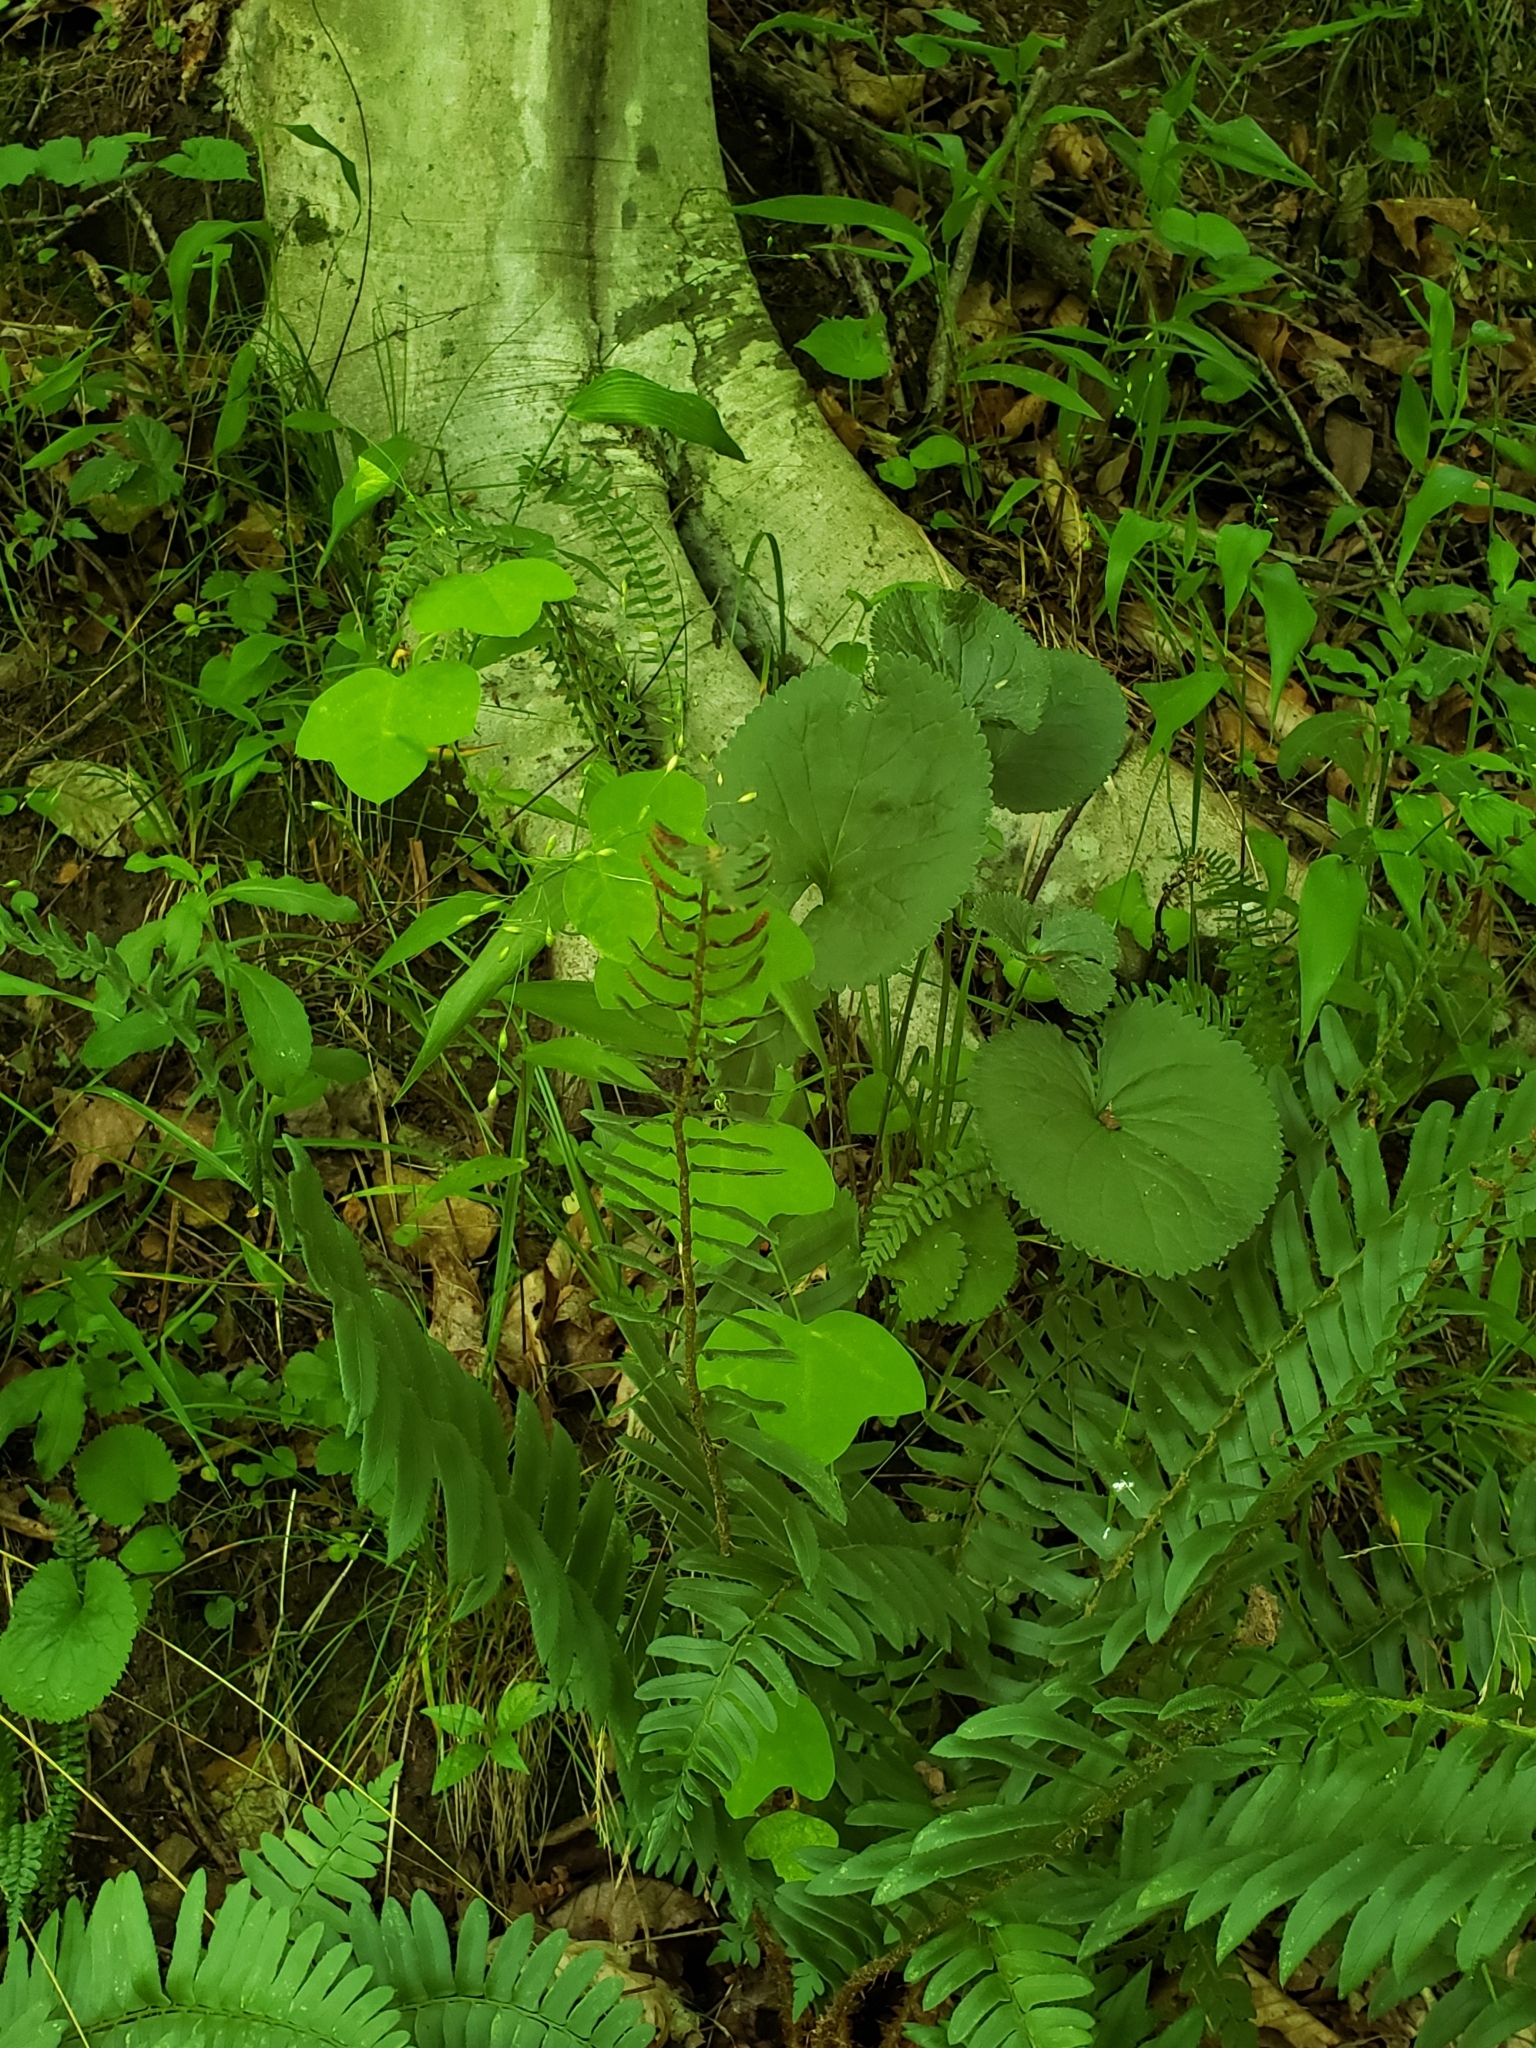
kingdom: Plantae
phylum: Tracheophyta
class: Magnoliopsida
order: Malpighiales
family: Passifloraceae
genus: Passiflora
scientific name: Passiflora lutea
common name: Yellow passionflower
